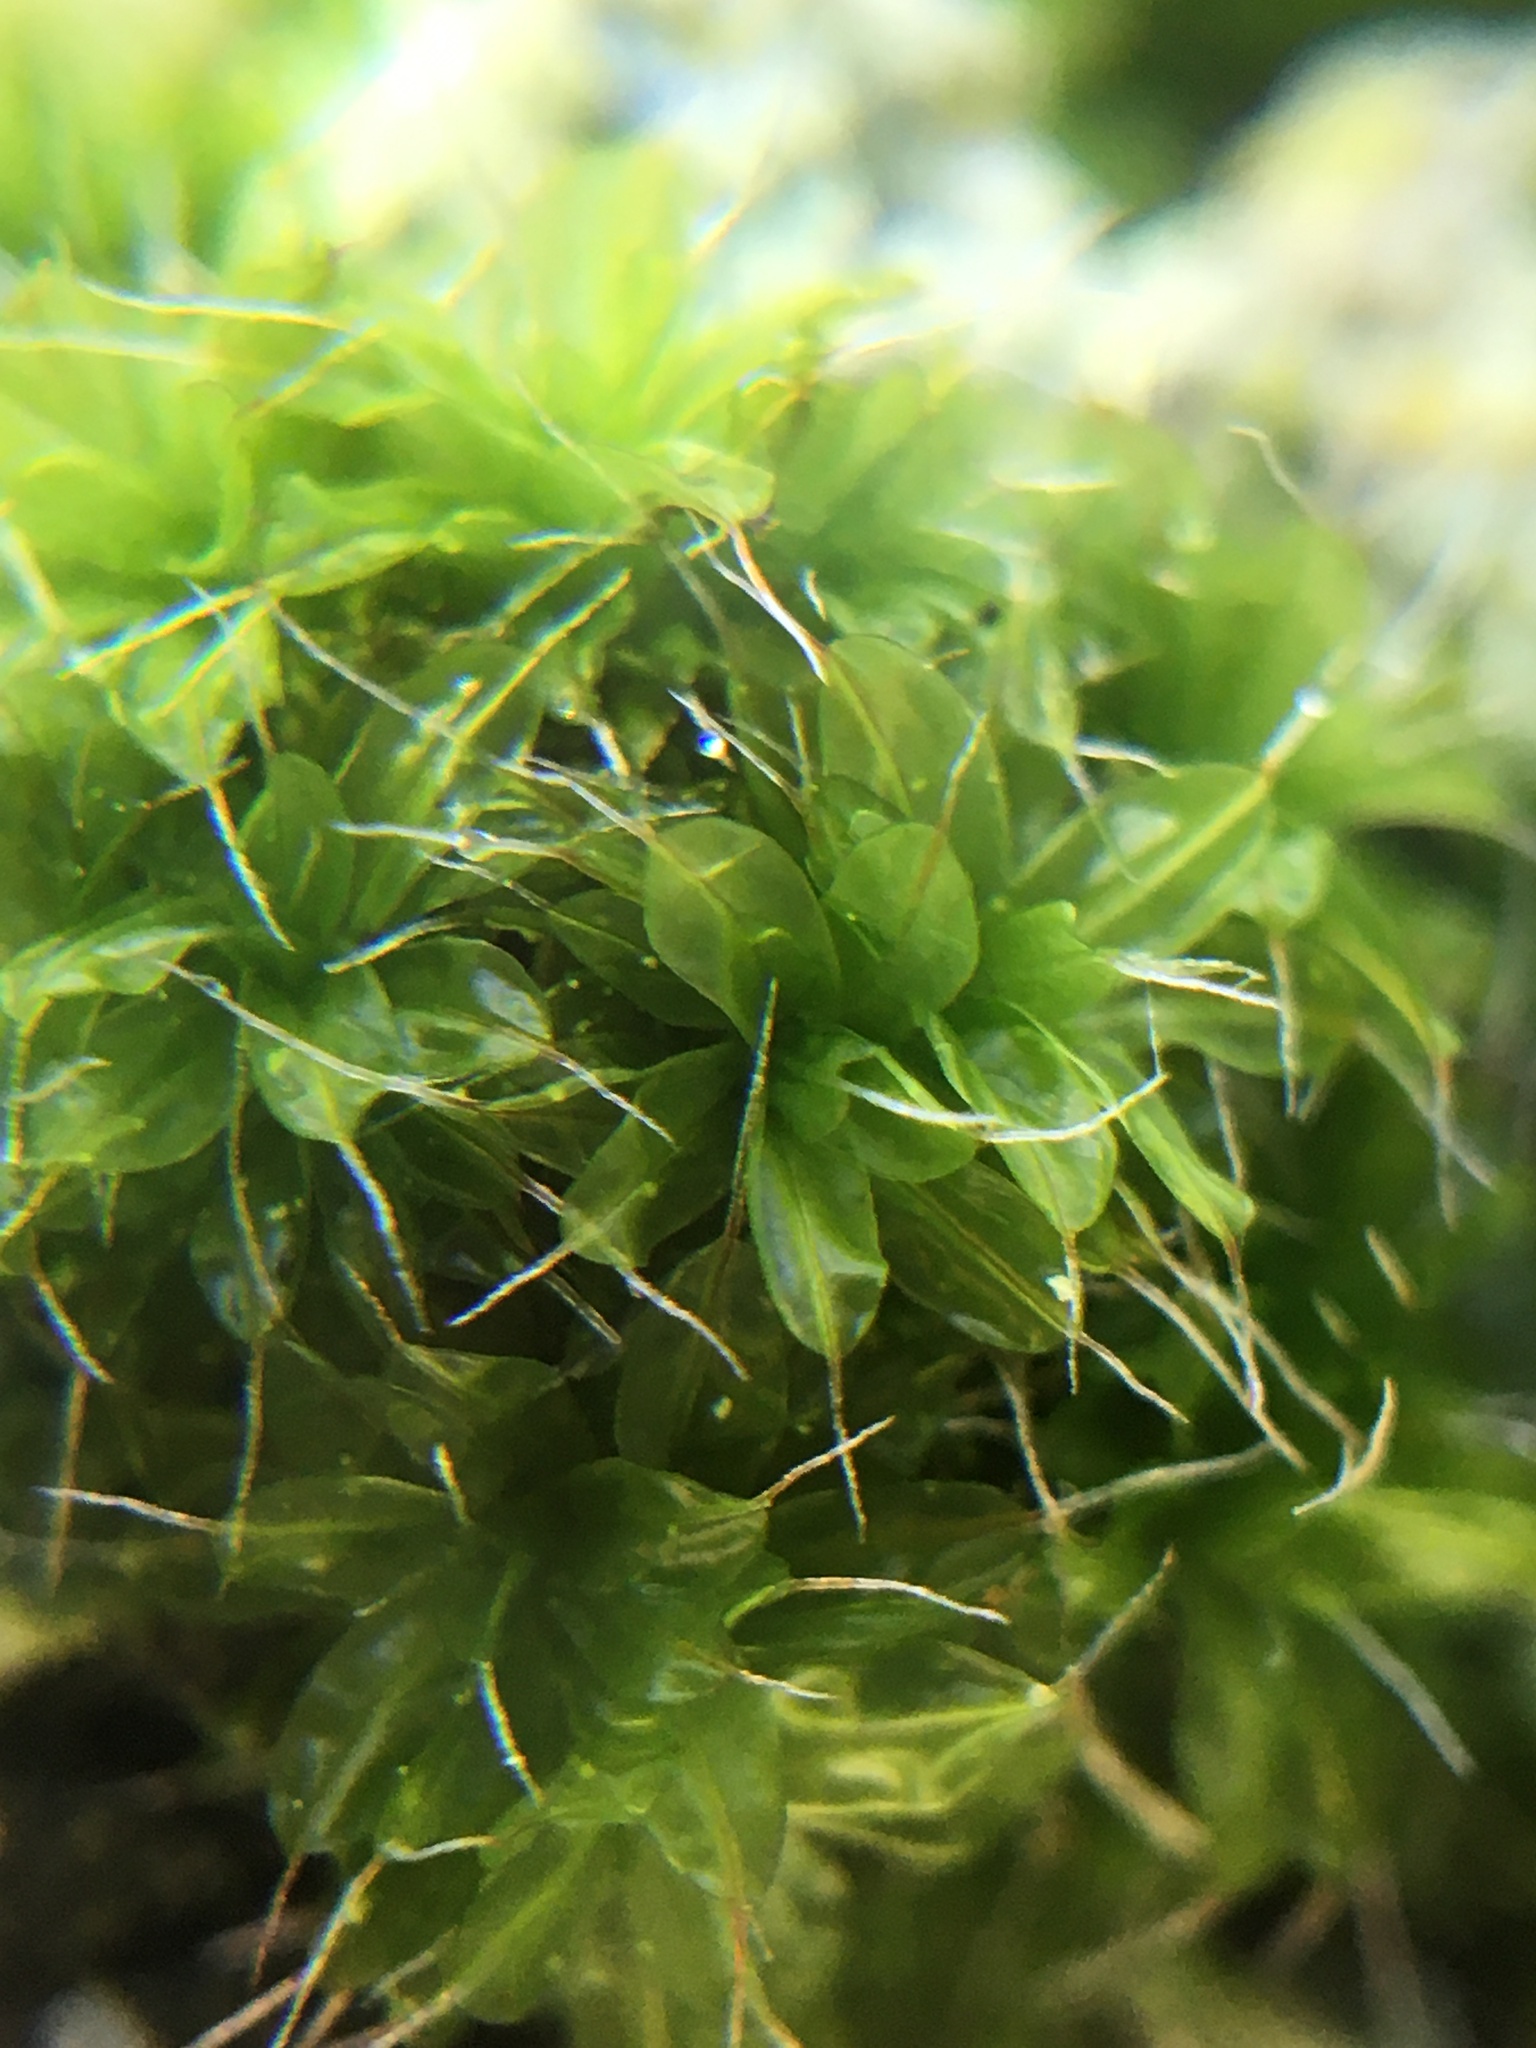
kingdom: Plantae
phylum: Bryophyta
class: Bryopsida
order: Pottiales
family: Pottiaceae
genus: Syntrichia
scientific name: Syntrichia laevipila
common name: Small hairy screw-moss
